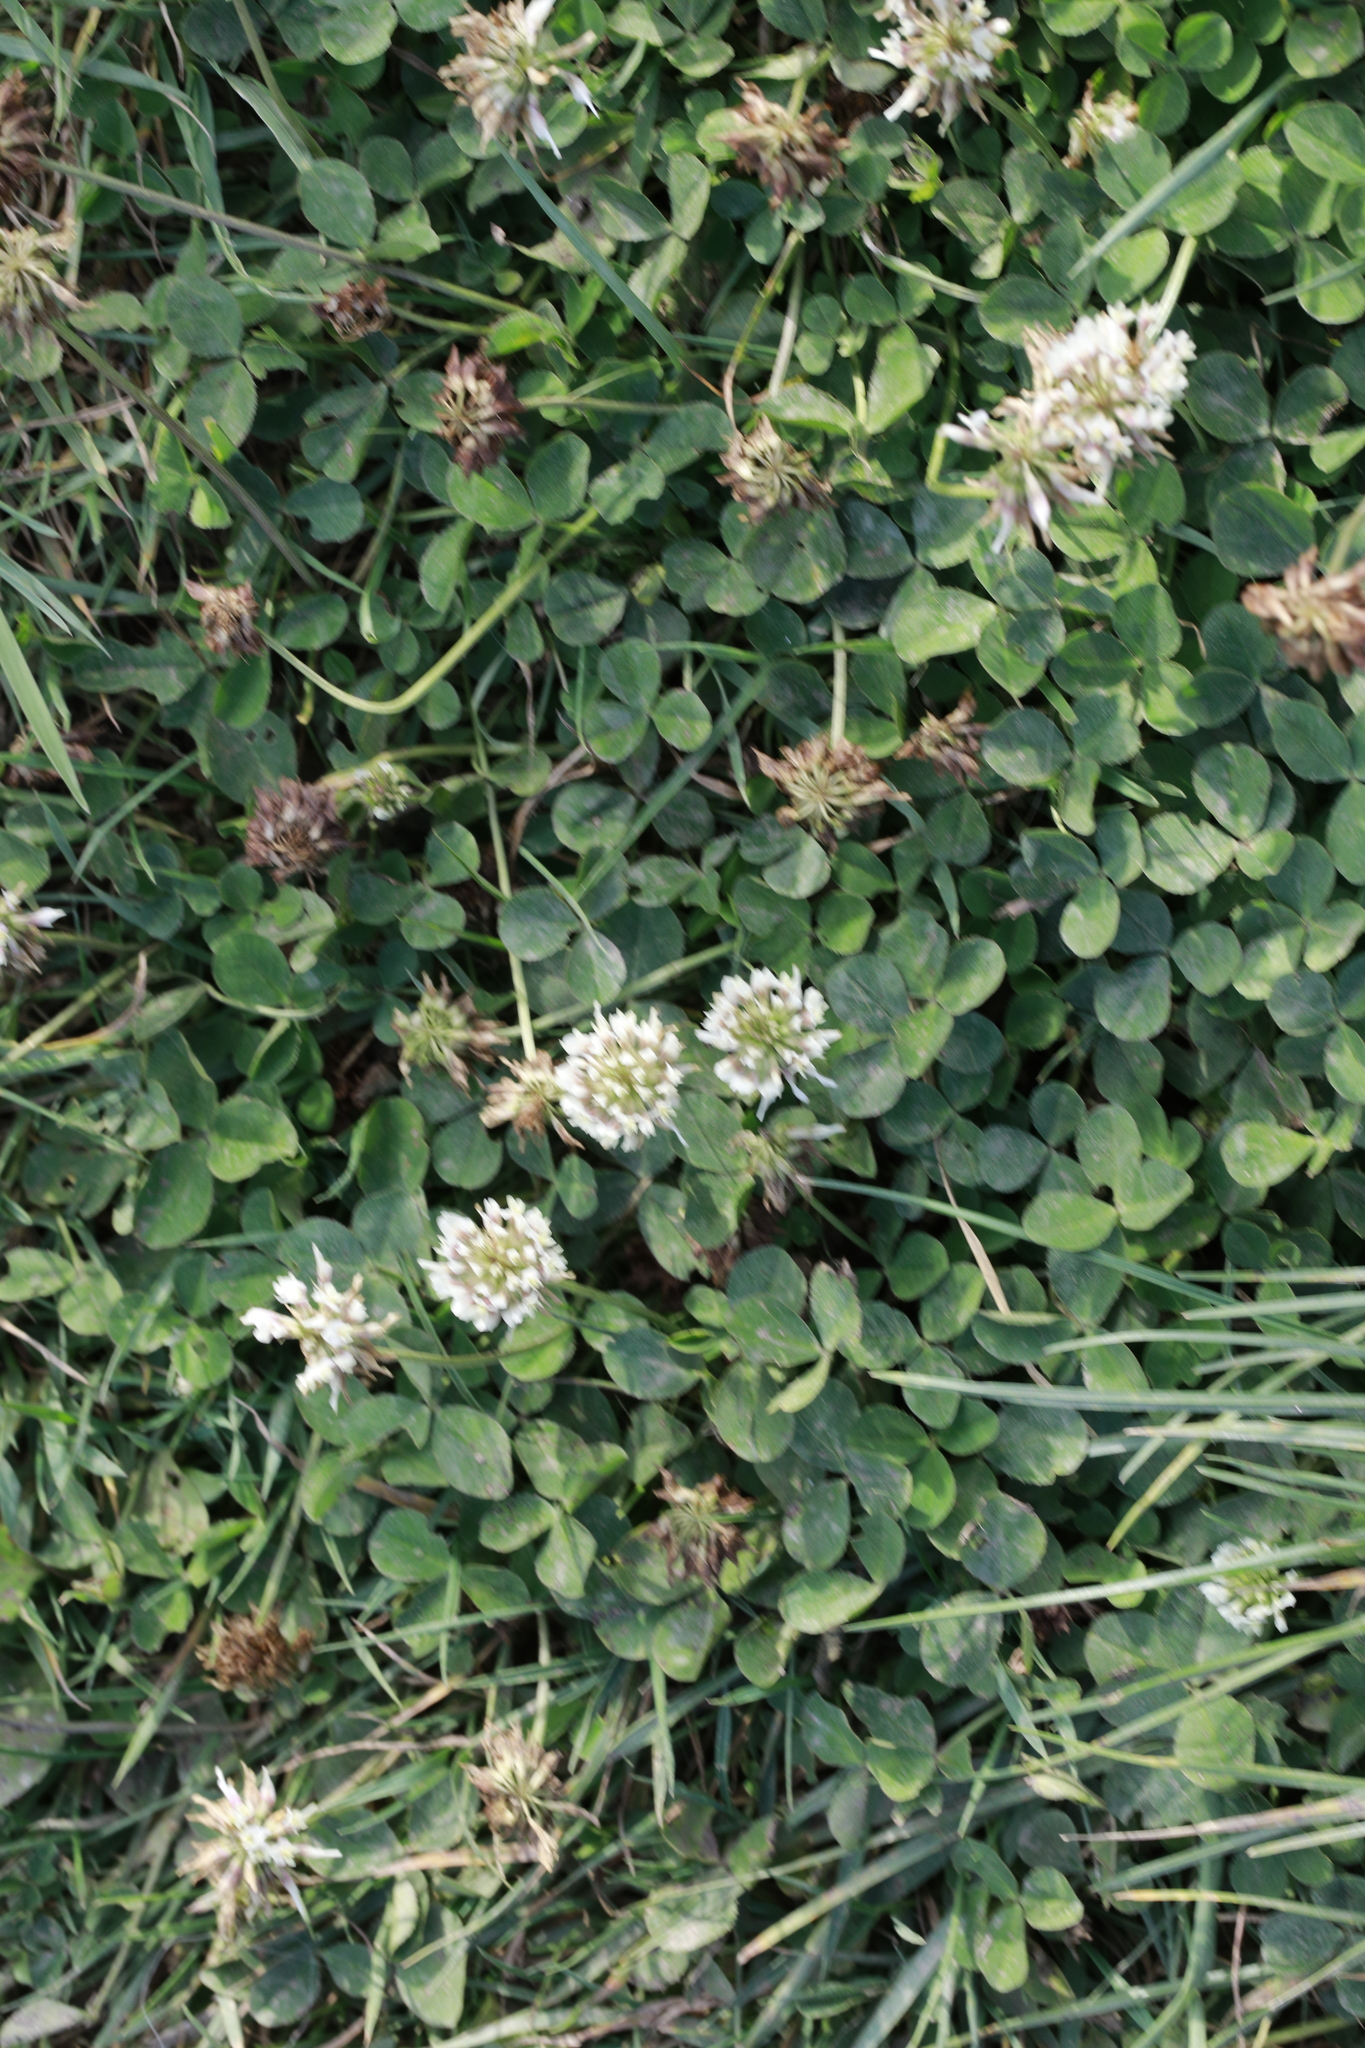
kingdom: Plantae
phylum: Tracheophyta
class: Magnoliopsida
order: Fabales
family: Fabaceae
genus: Trifolium
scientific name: Trifolium repens
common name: White clover
